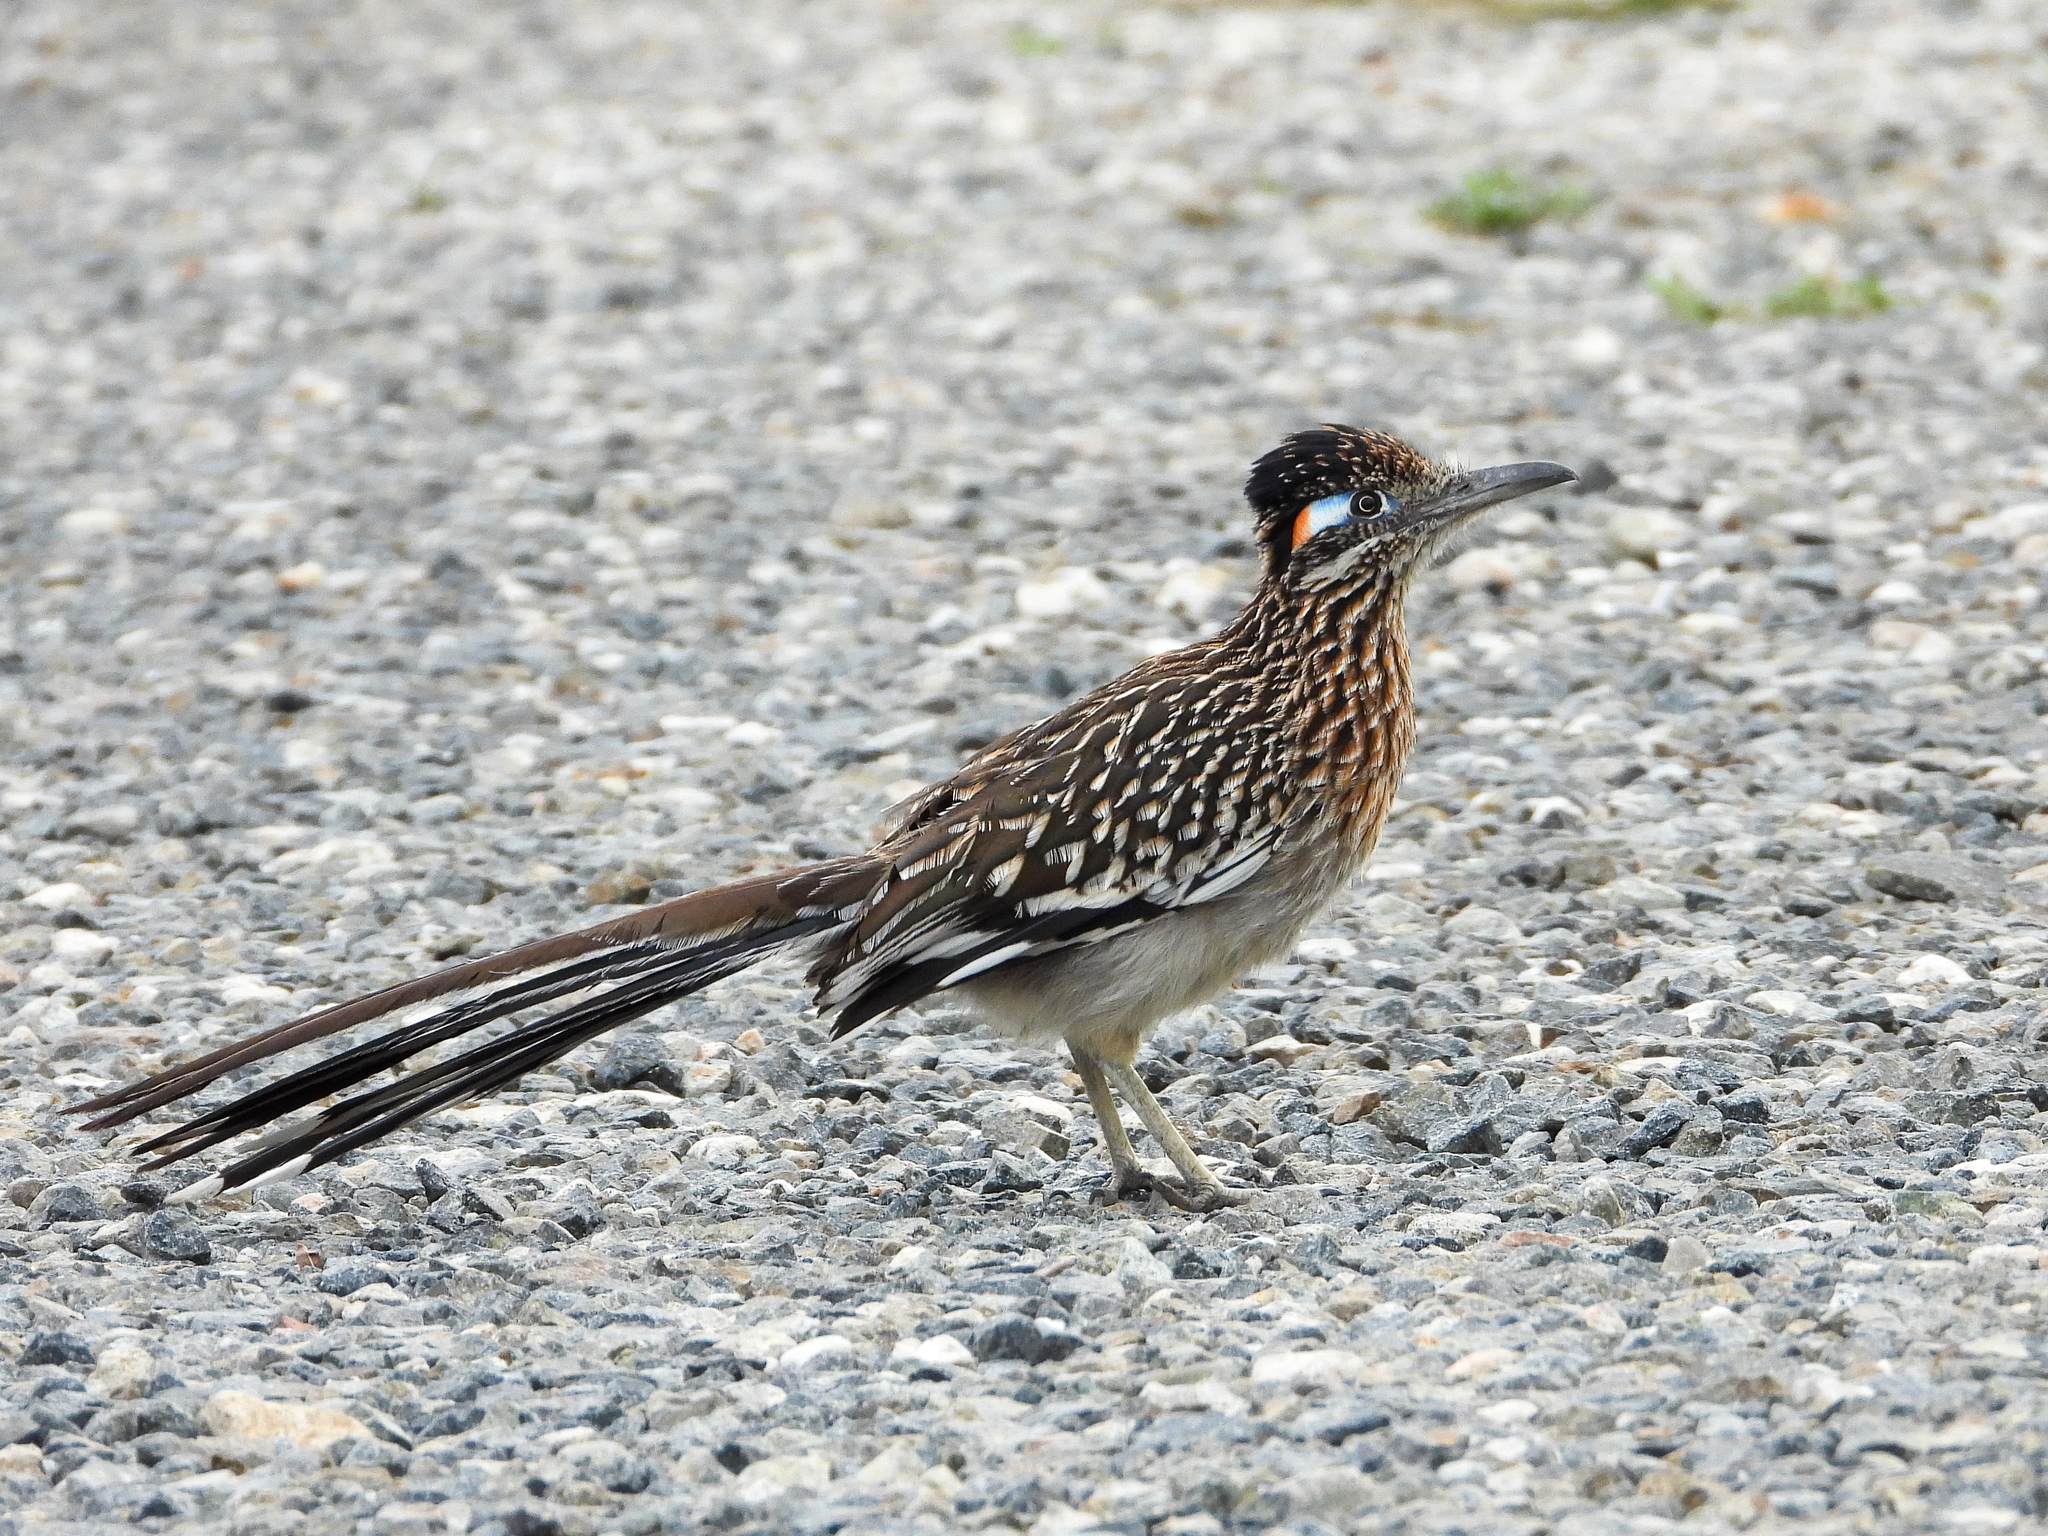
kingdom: Animalia
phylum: Chordata
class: Aves
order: Cuculiformes
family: Cuculidae
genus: Geococcyx
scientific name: Geococcyx californianus
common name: Greater roadrunner
